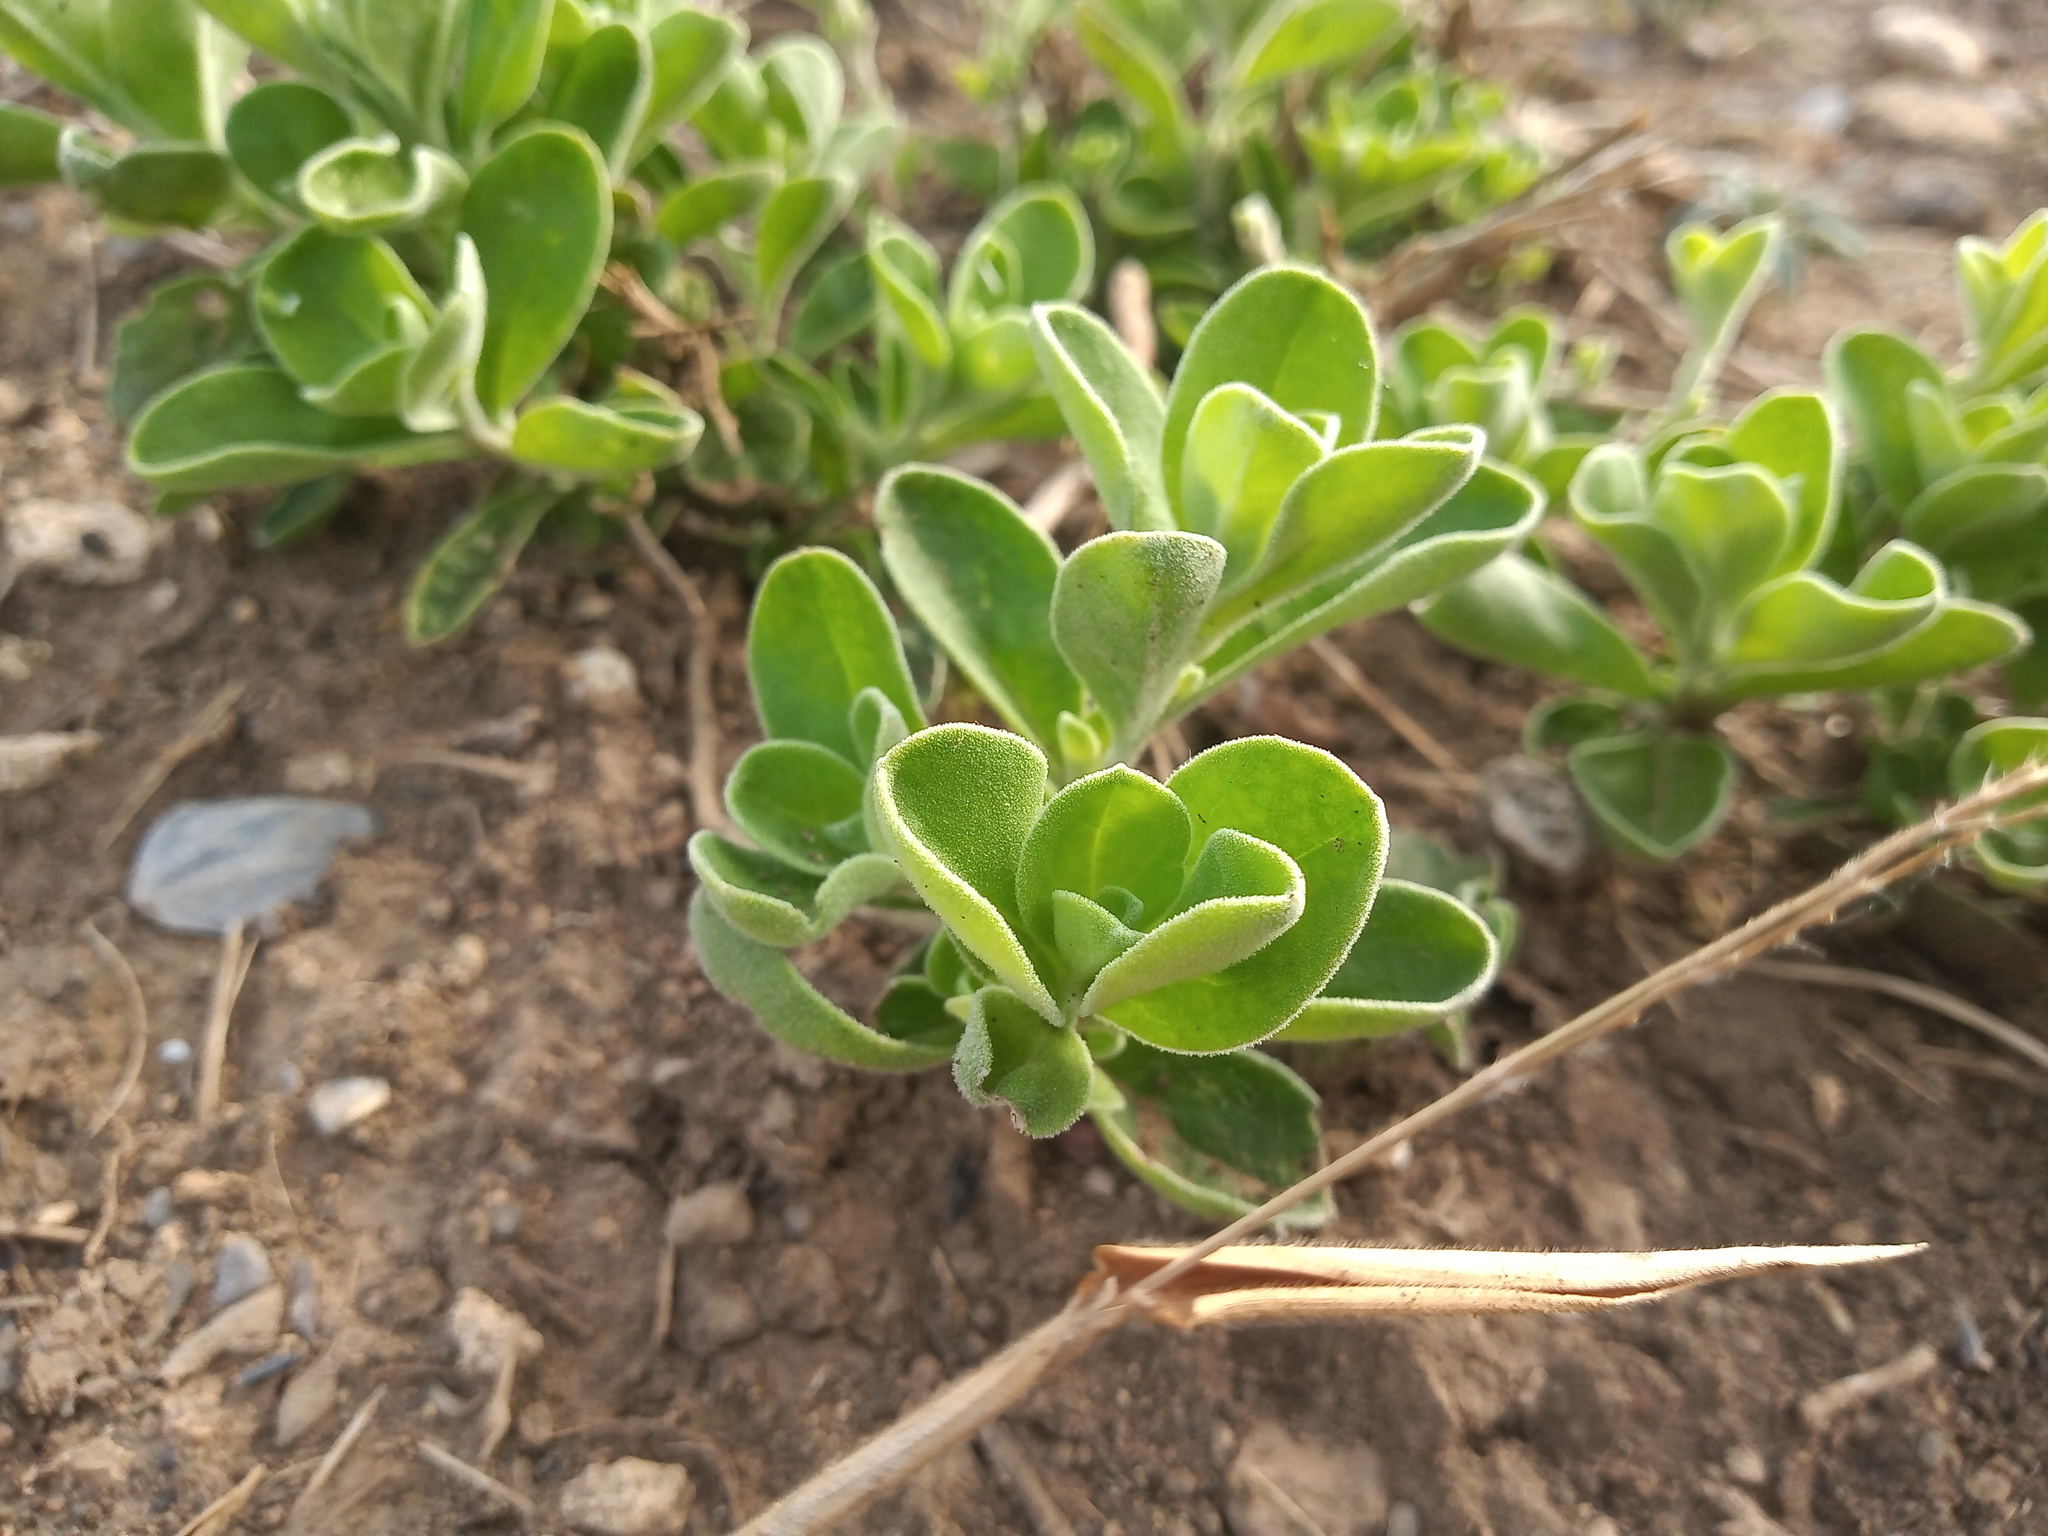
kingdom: Plantae
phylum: Tracheophyta
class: Magnoliopsida
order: Lamiales
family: Scrophulariaceae
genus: Leucophyllum
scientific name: Leucophyllum frutescens
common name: Texas silverleaf
